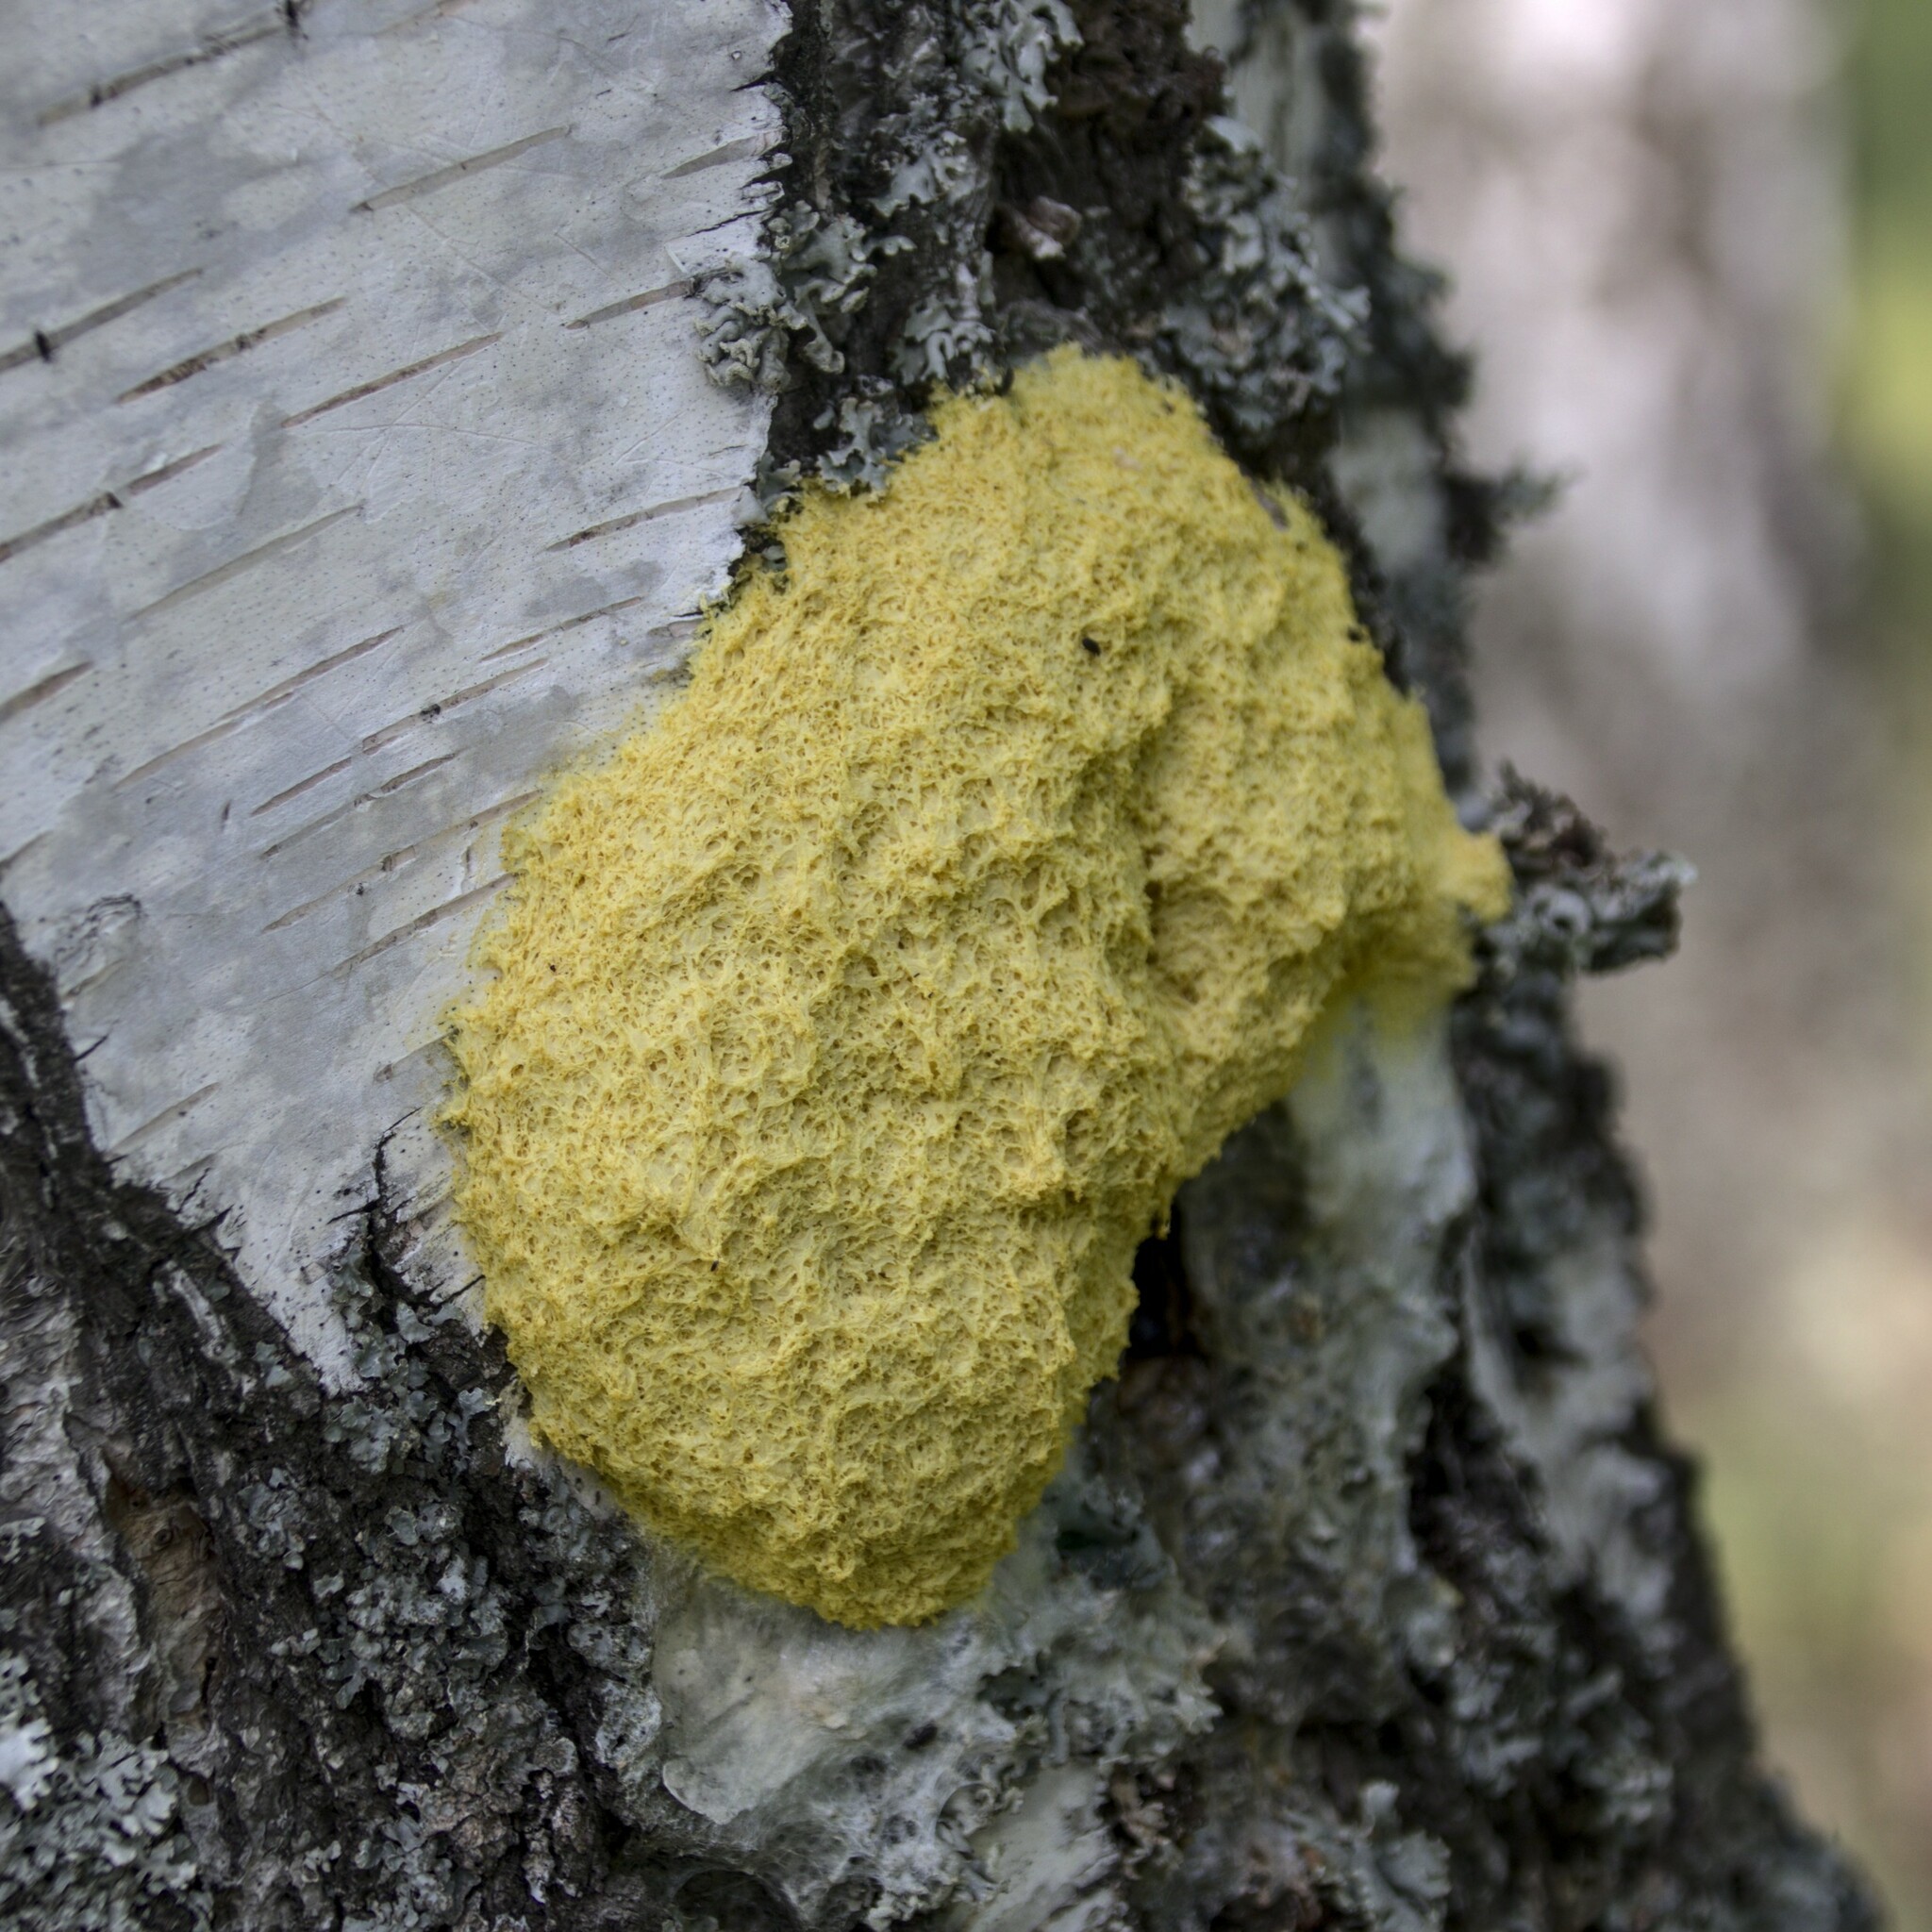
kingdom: Protozoa
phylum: Mycetozoa
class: Myxomycetes
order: Physarales
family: Physaraceae
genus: Fuligo
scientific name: Fuligo septica
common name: Dog vomit slime mold
